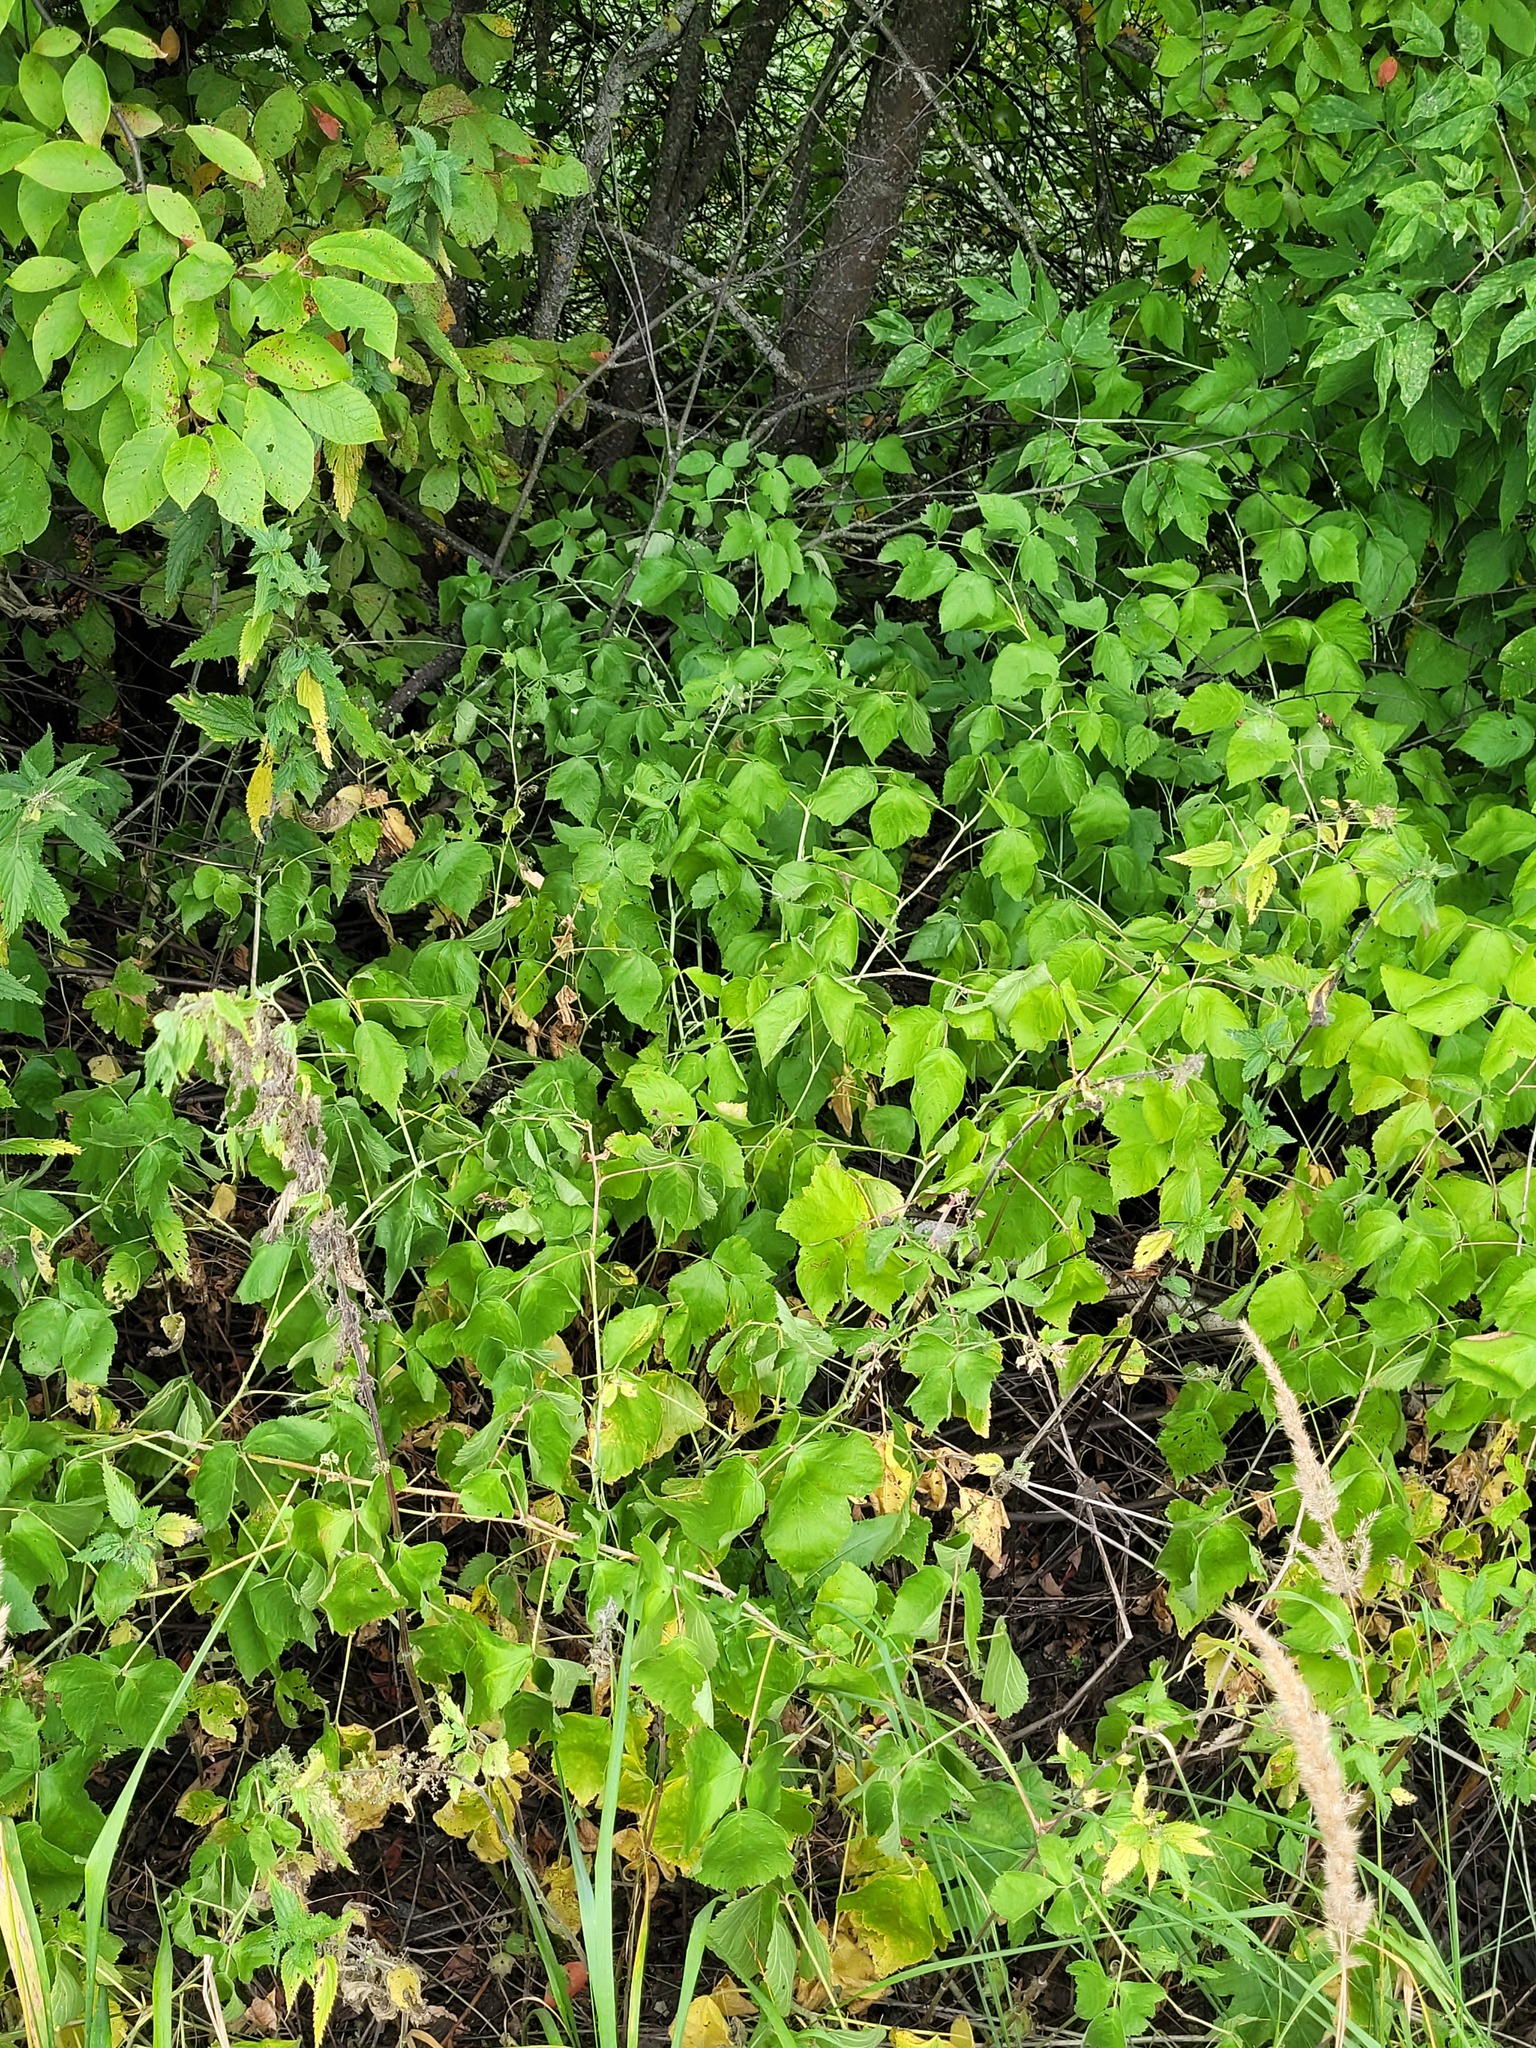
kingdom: Plantae
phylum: Tracheophyta
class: Magnoliopsida
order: Rosales
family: Rosaceae
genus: Rubus
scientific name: Rubus caesius
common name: Dewberry
